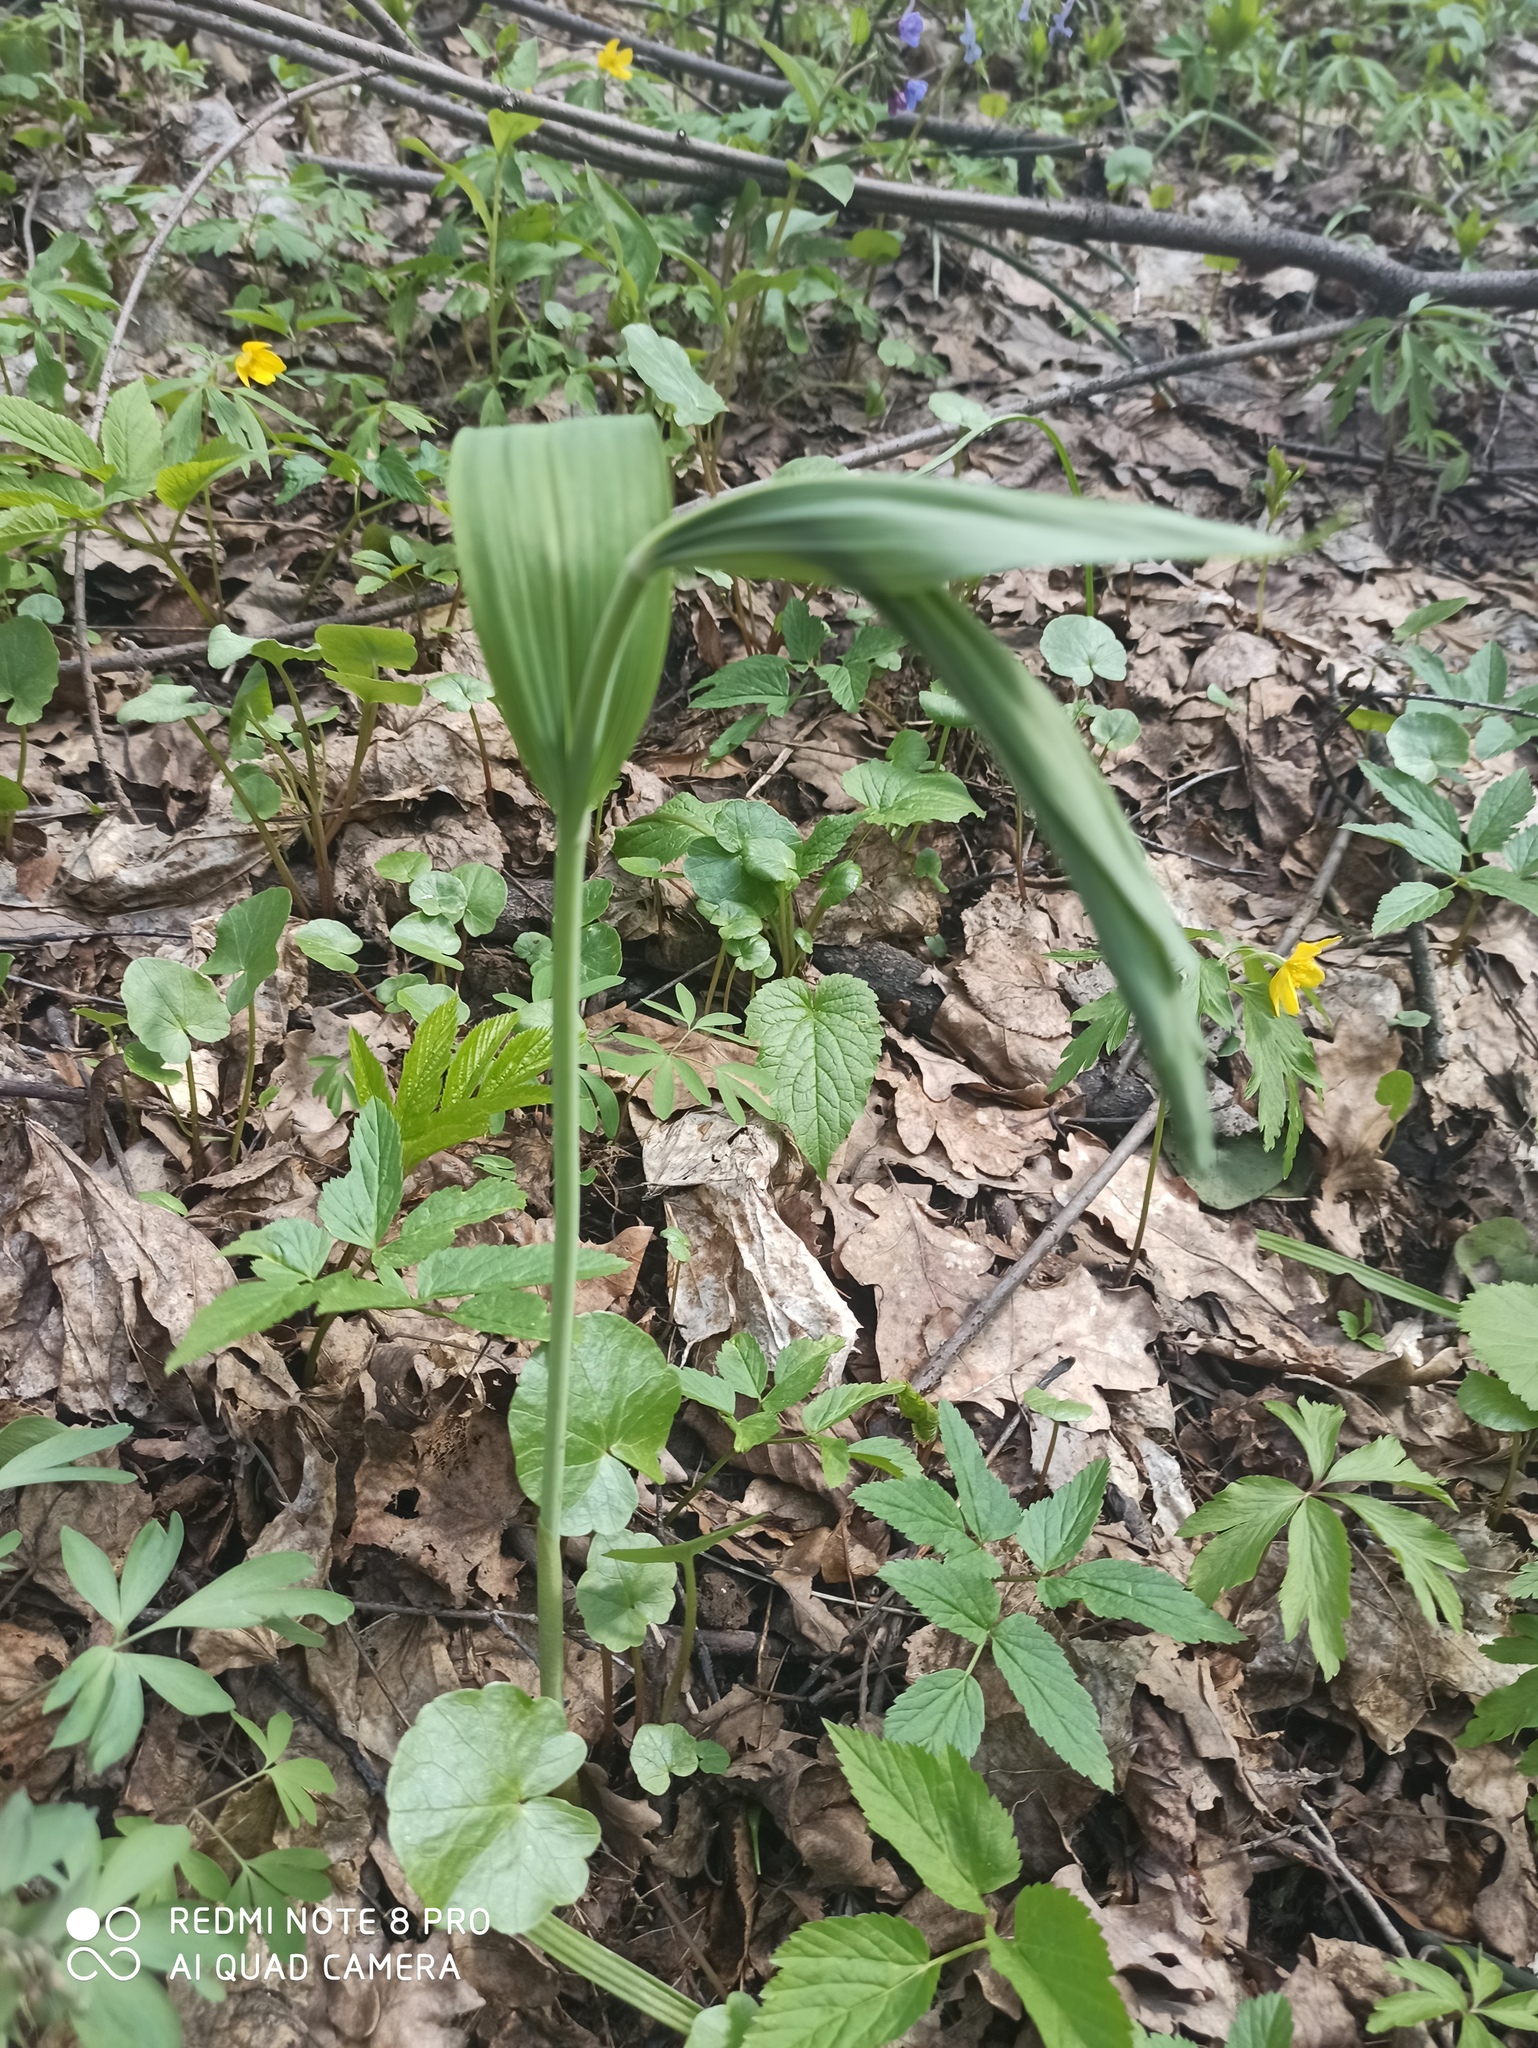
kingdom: Plantae
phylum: Tracheophyta
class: Liliopsida
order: Asparagales
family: Asparagaceae
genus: Polygonatum
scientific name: Polygonatum multiflorum
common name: Solomon's-seal
